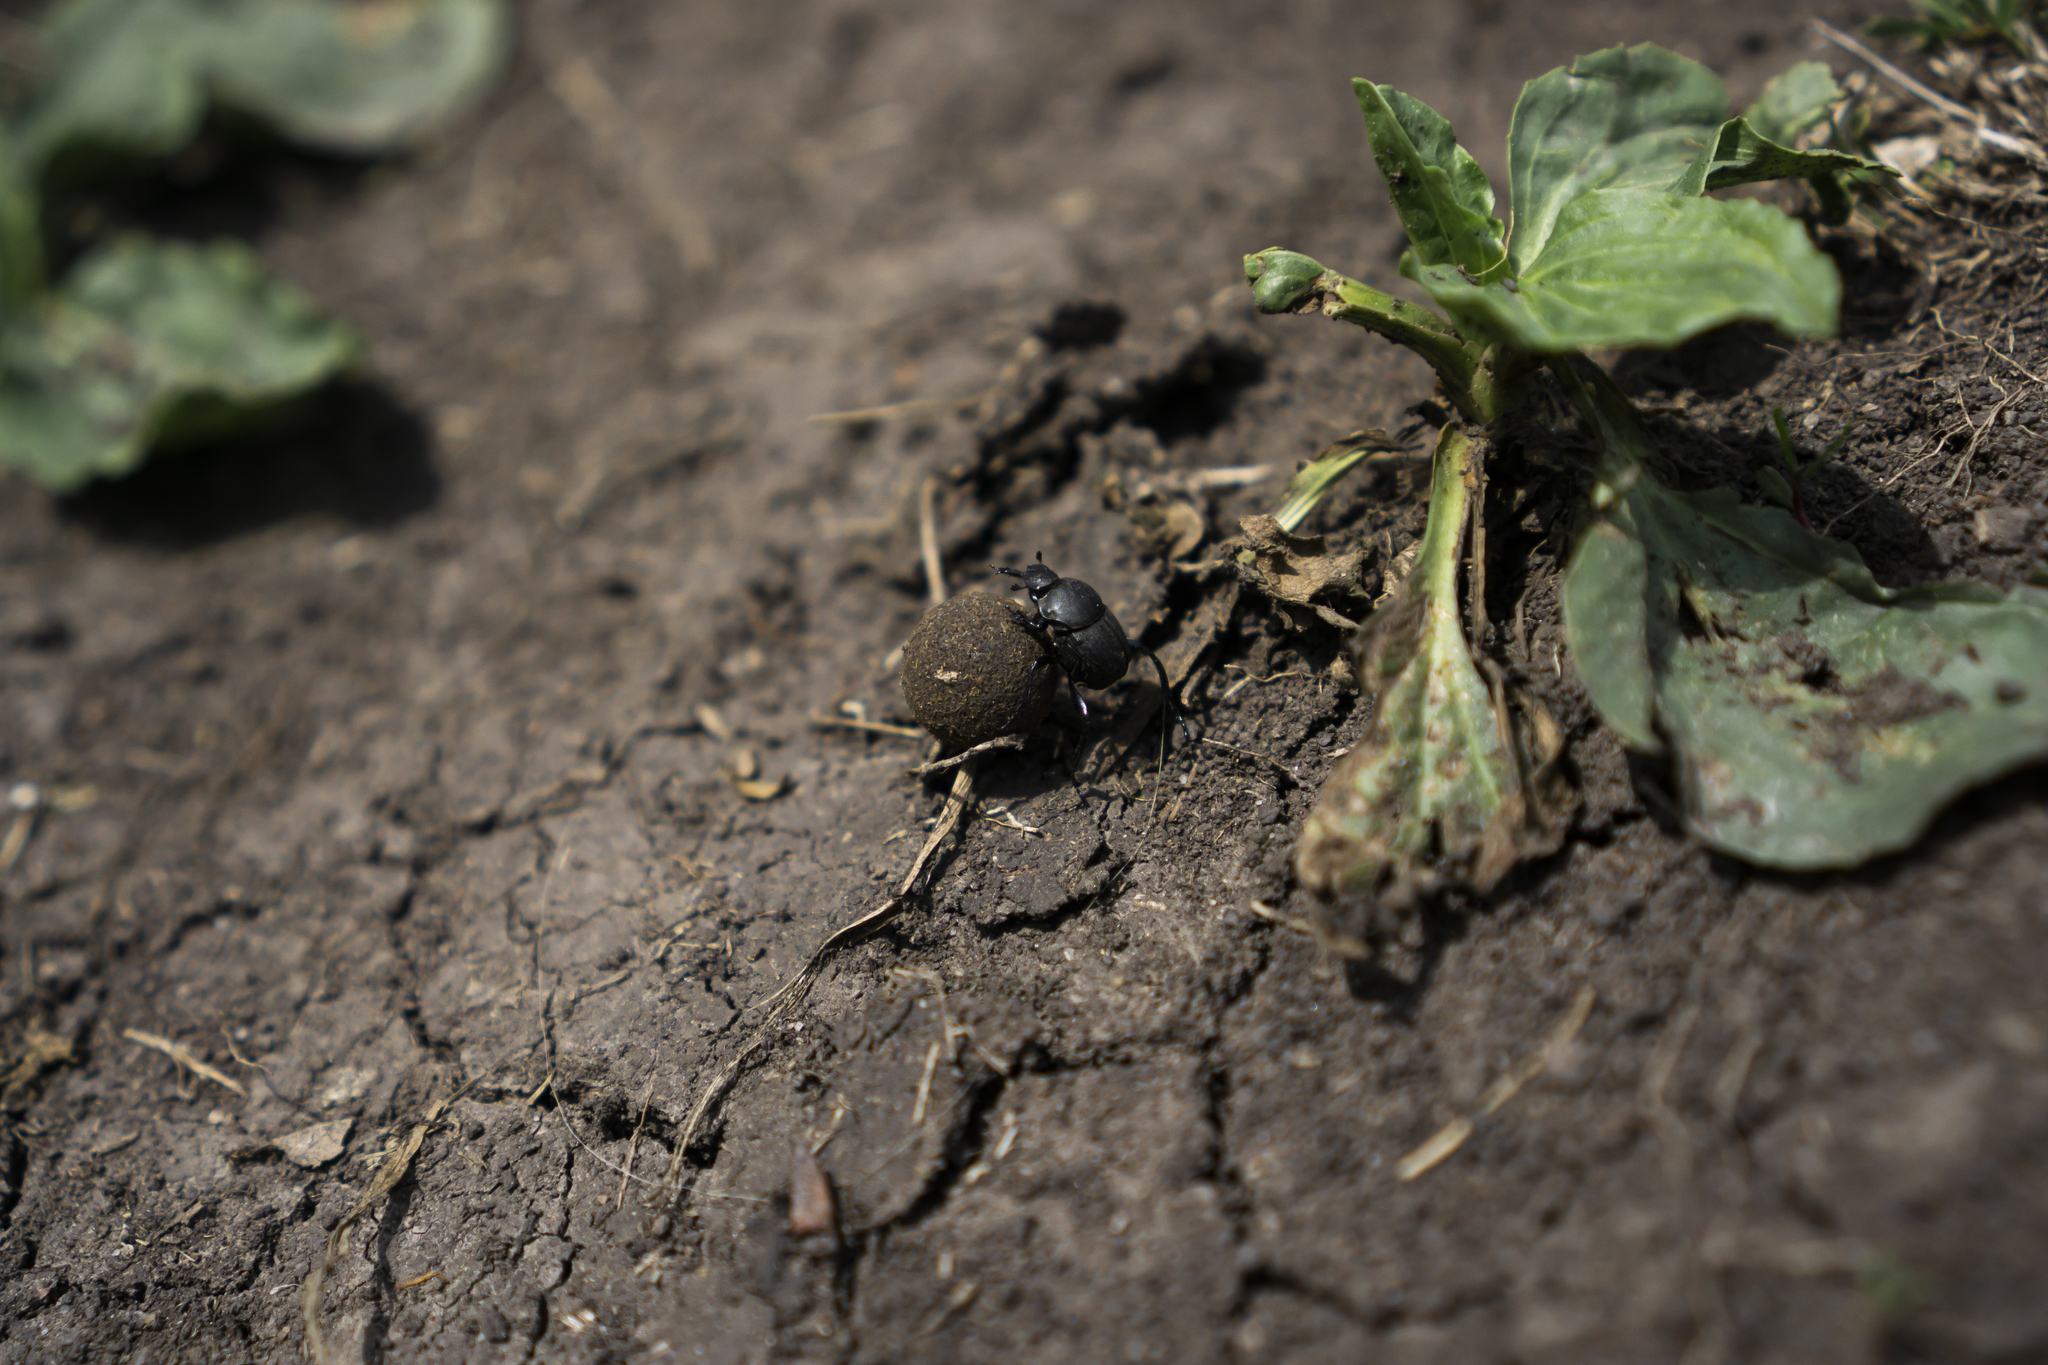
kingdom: Animalia
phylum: Arthropoda
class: Insecta
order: Coleoptera
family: Scarabaeidae
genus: Sisyphus
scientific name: Sisyphus schaefferi
